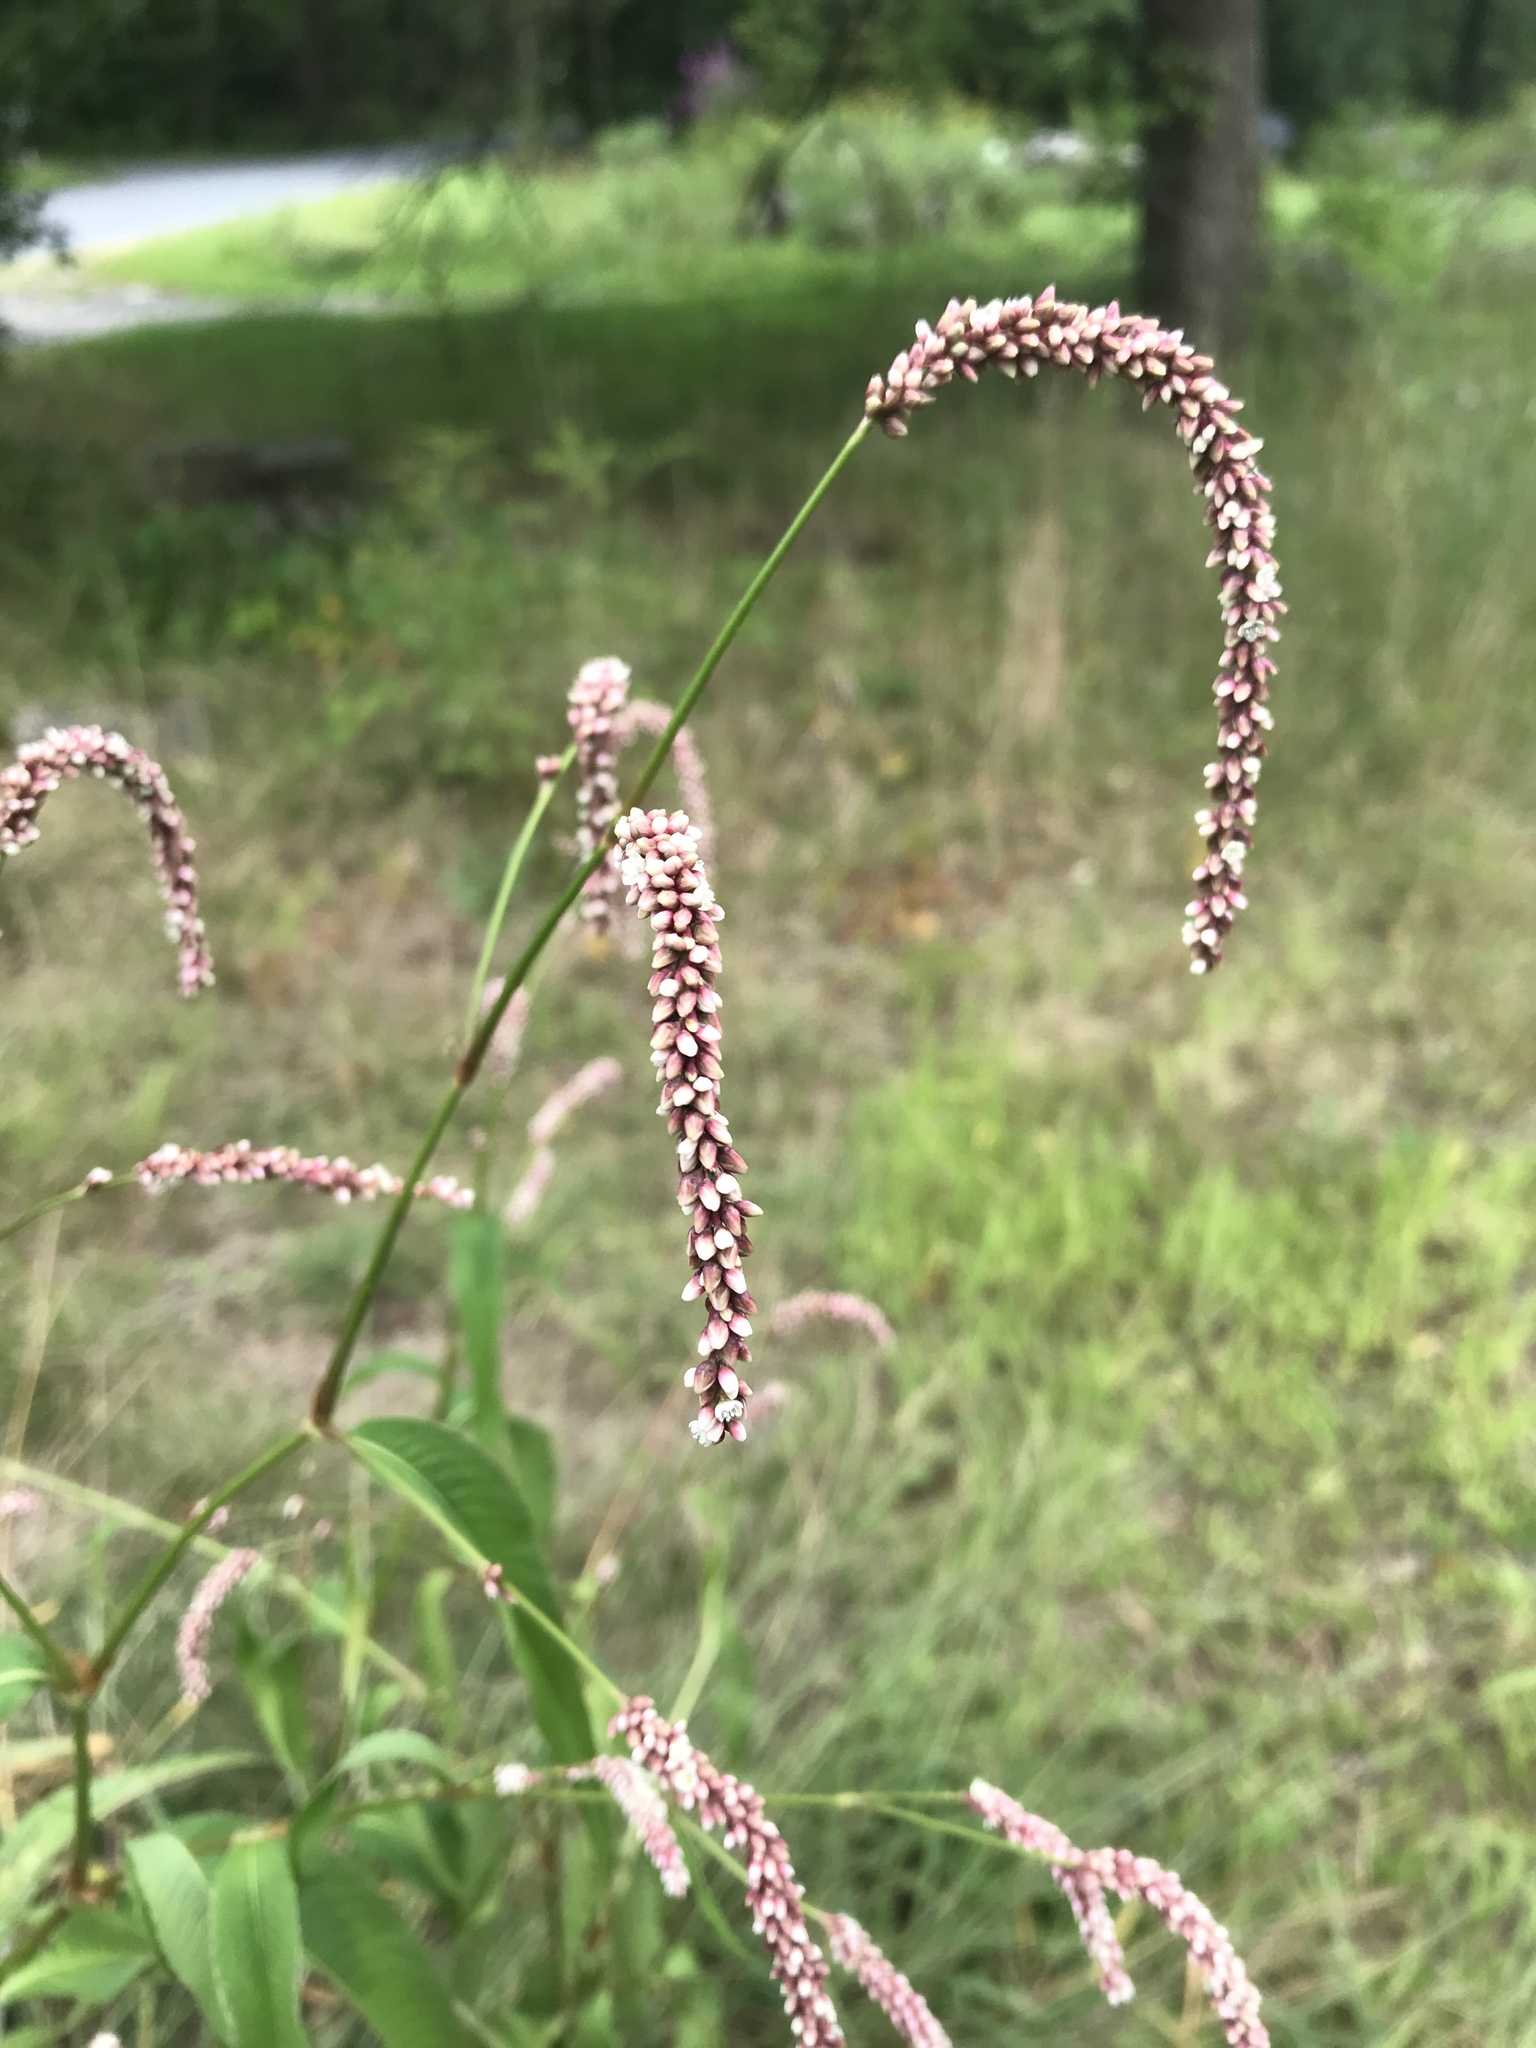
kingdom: Plantae
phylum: Tracheophyta
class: Magnoliopsida
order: Caryophyllales
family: Polygonaceae
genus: Persicaria
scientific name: Persicaria lapathifolia
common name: Curlytop knotweed
